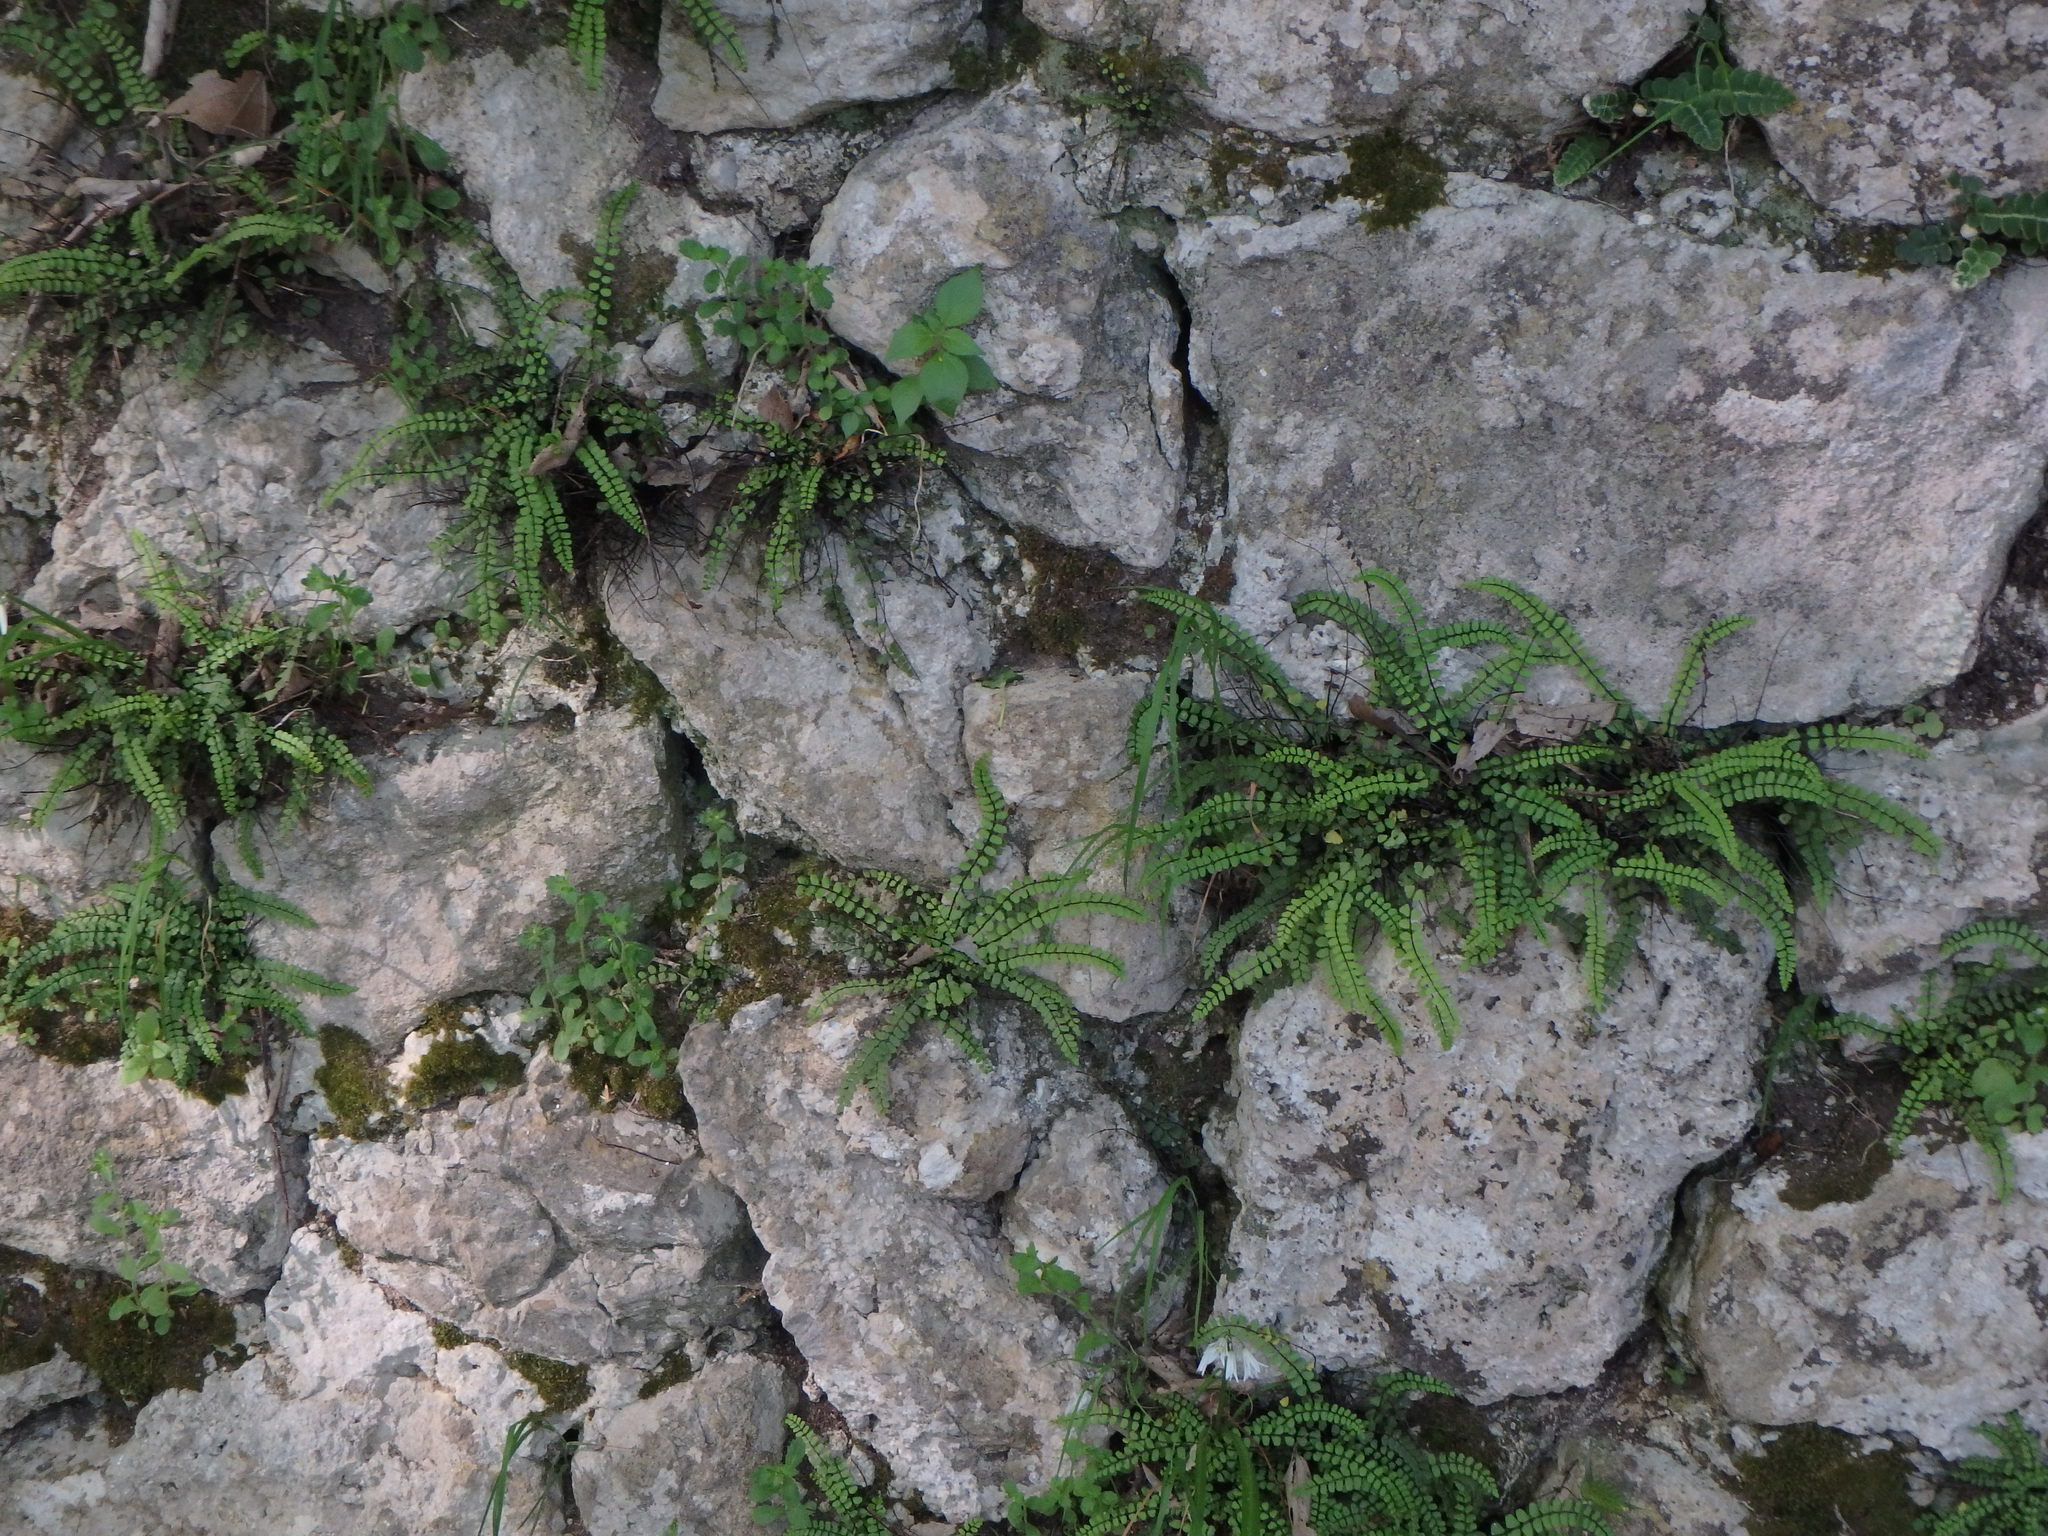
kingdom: Plantae
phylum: Tracheophyta
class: Polypodiopsida
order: Polypodiales
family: Aspleniaceae
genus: Asplenium
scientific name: Asplenium trichomanes
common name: Maidenhair spleenwort
